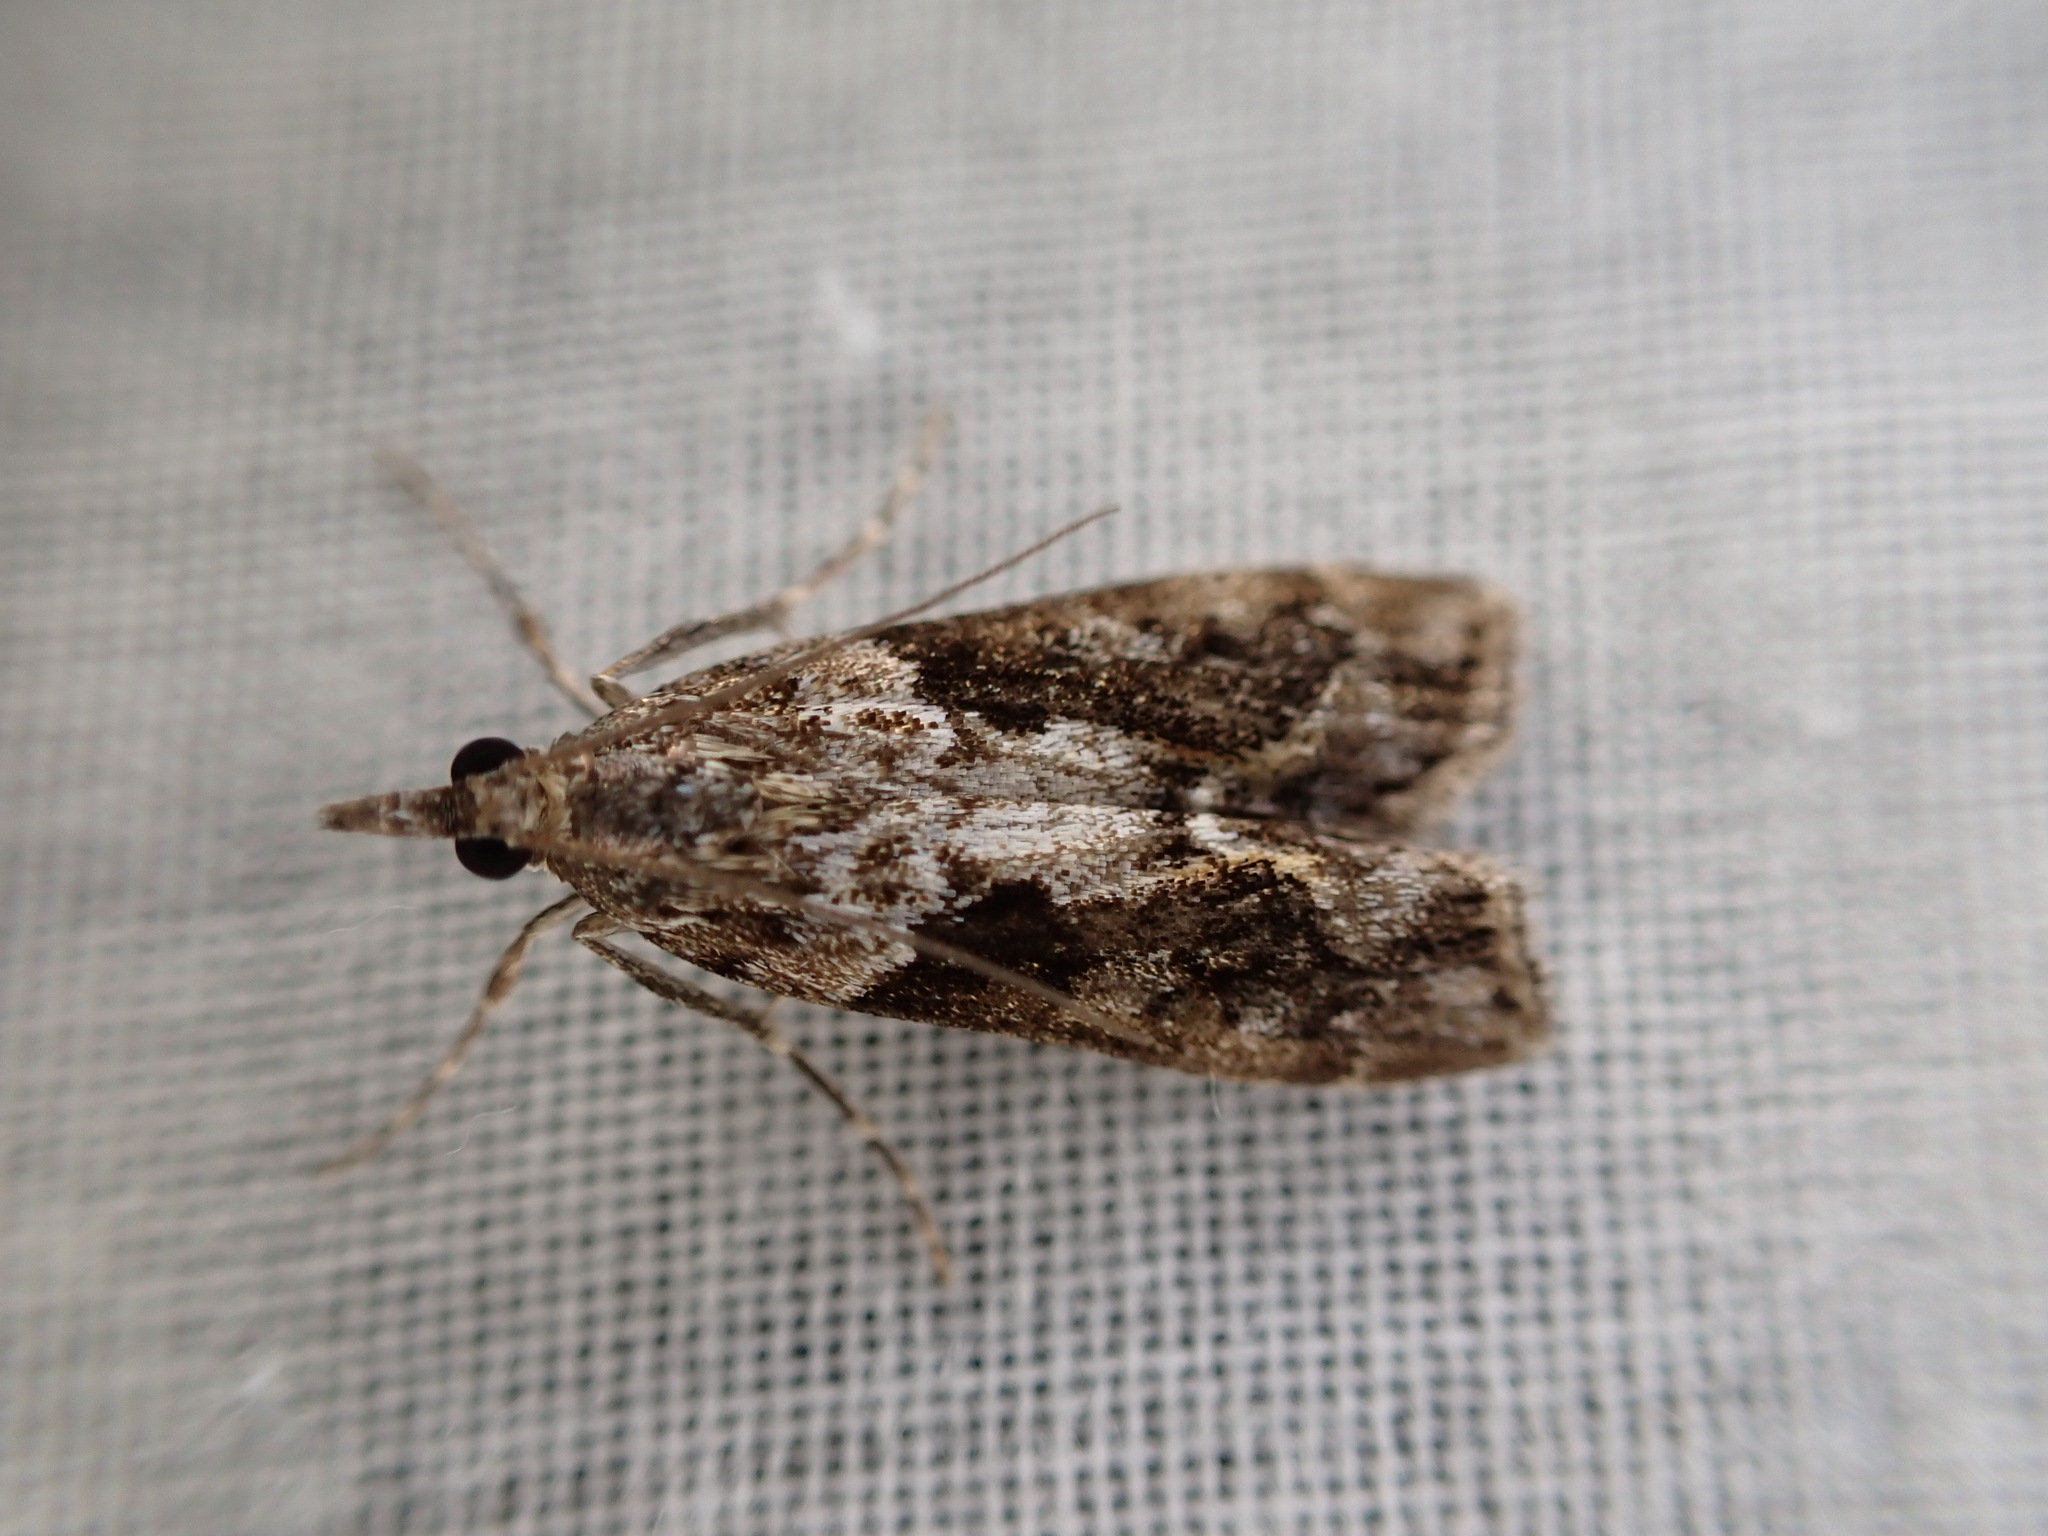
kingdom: Animalia
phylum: Arthropoda
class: Insecta
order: Lepidoptera
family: Crambidae
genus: Eudonia
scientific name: Eudonia submarginalis
